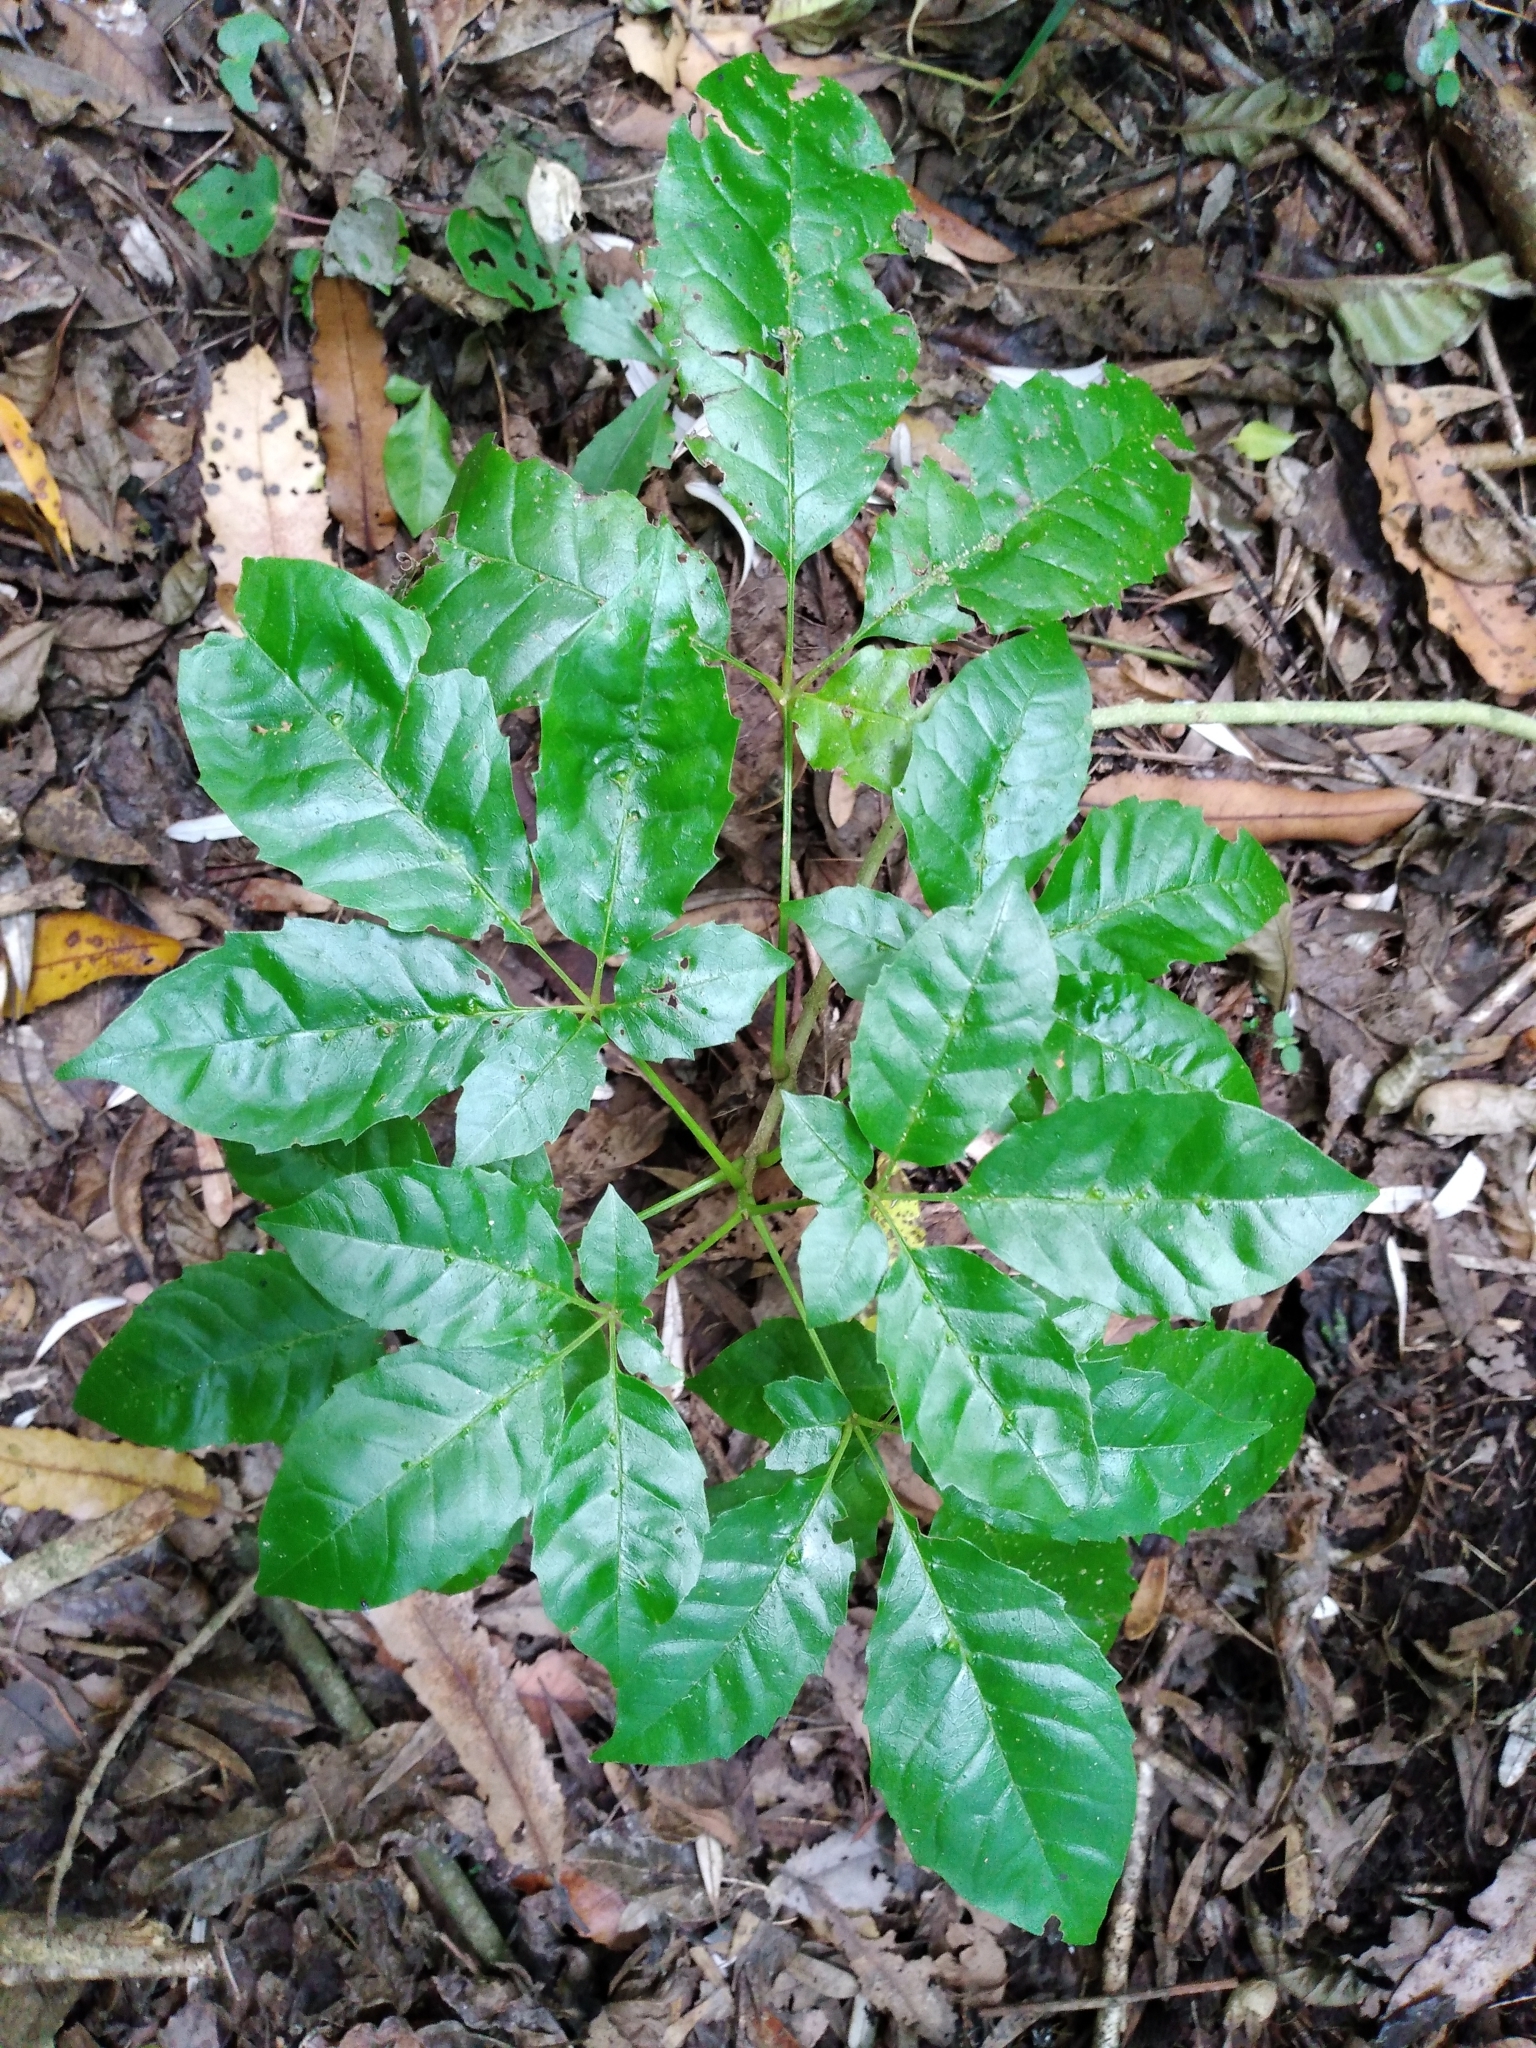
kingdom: Plantae
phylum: Tracheophyta
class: Magnoliopsida
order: Lamiales
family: Lamiaceae
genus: Vitex
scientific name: Vitex lucens
